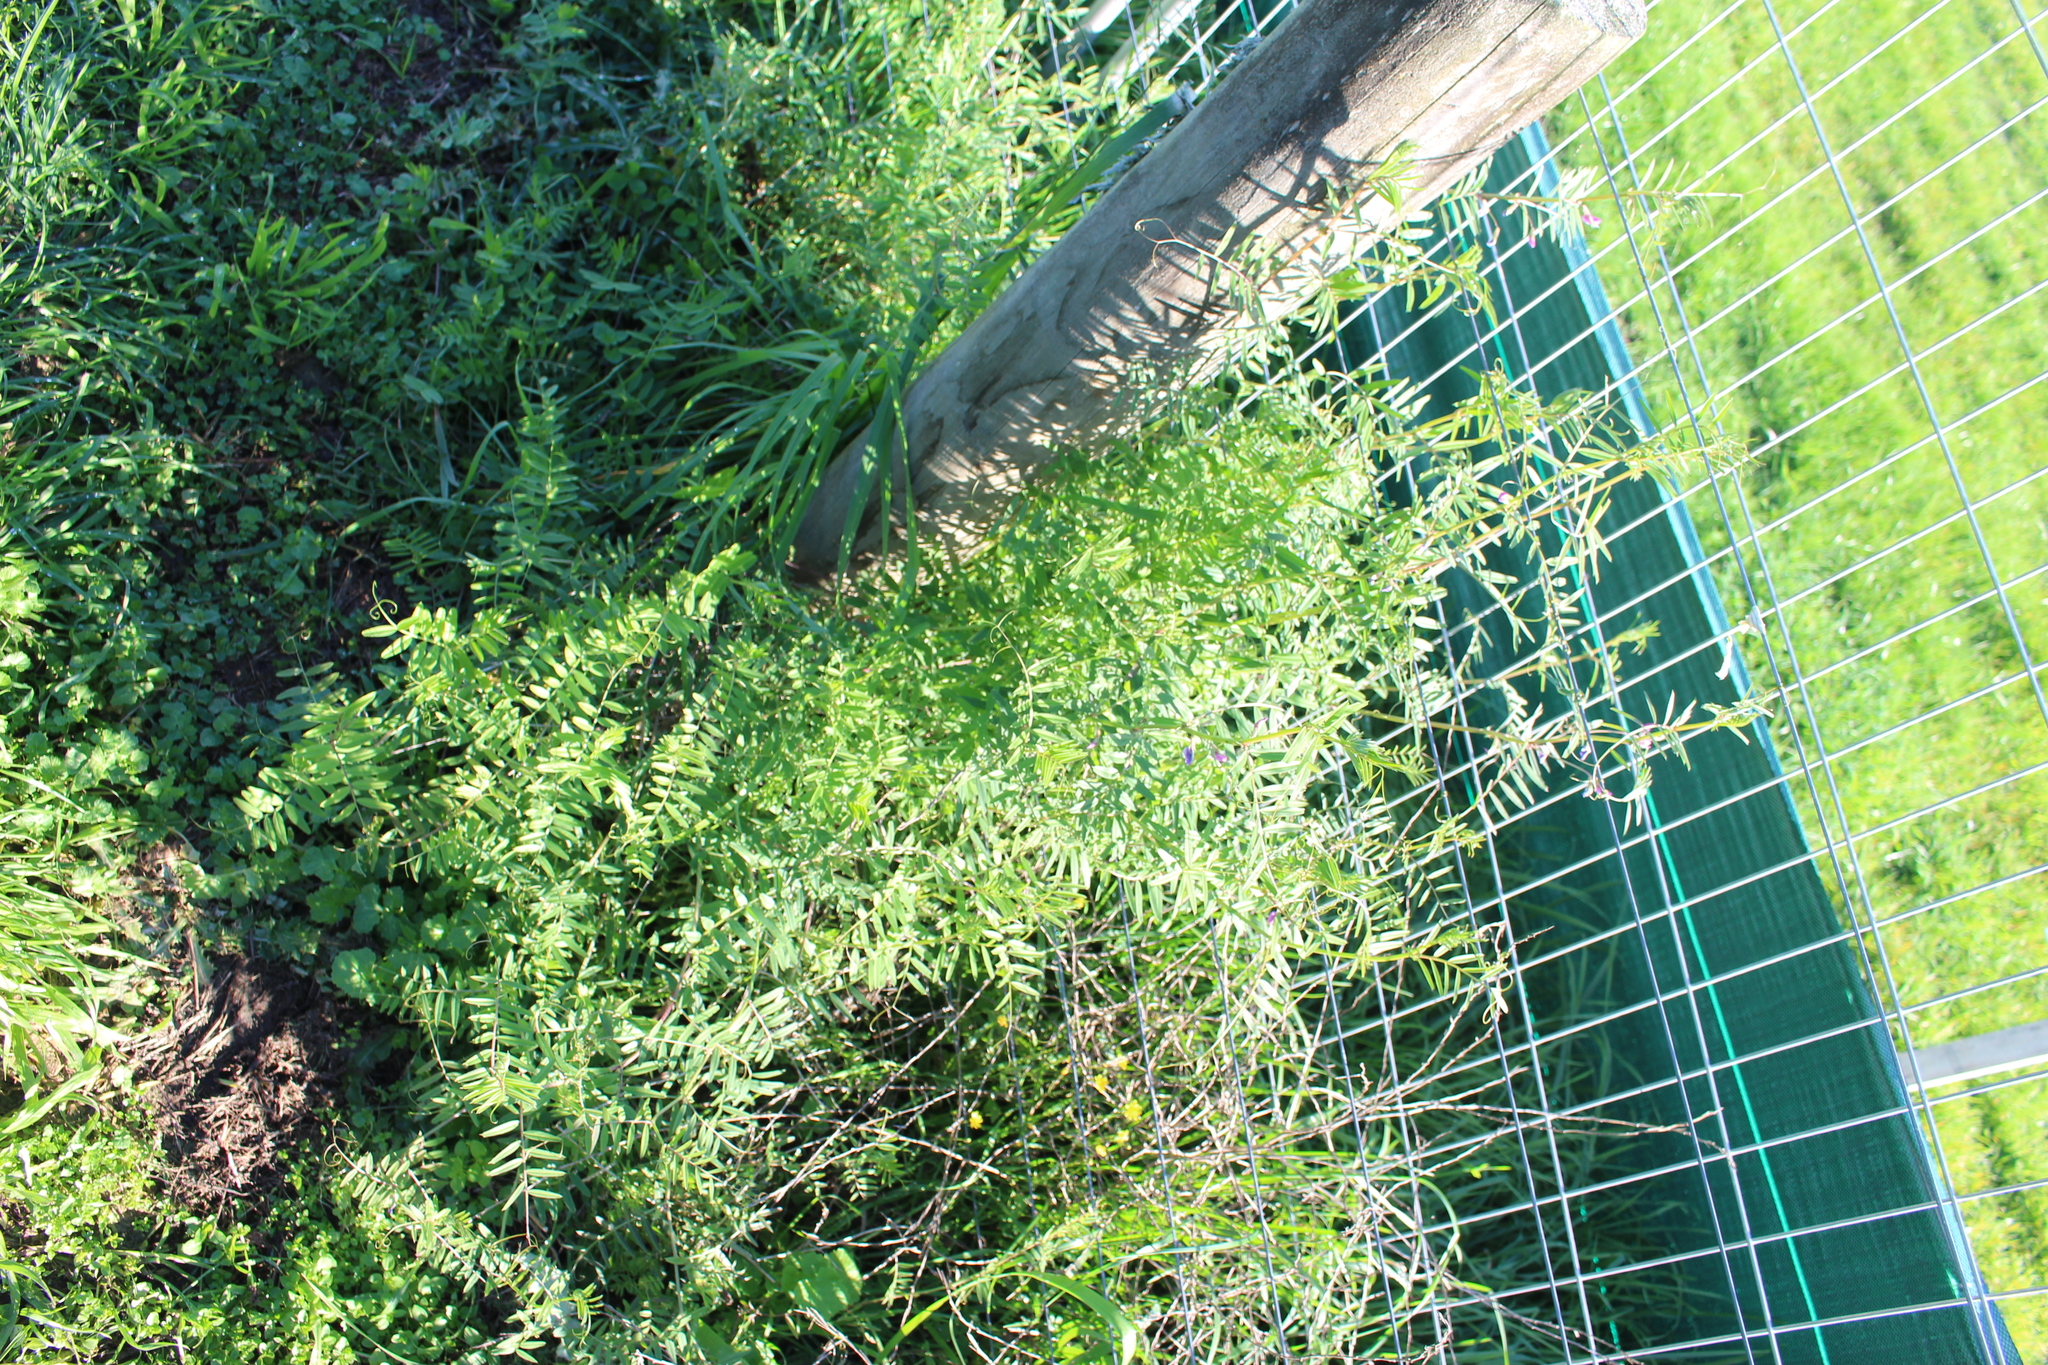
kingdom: Plantae
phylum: Tracheophyta
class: Magnoliopsida
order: Fabales
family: Fabaceae
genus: Vicia
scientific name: Vicia sativa
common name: Garden vetch
